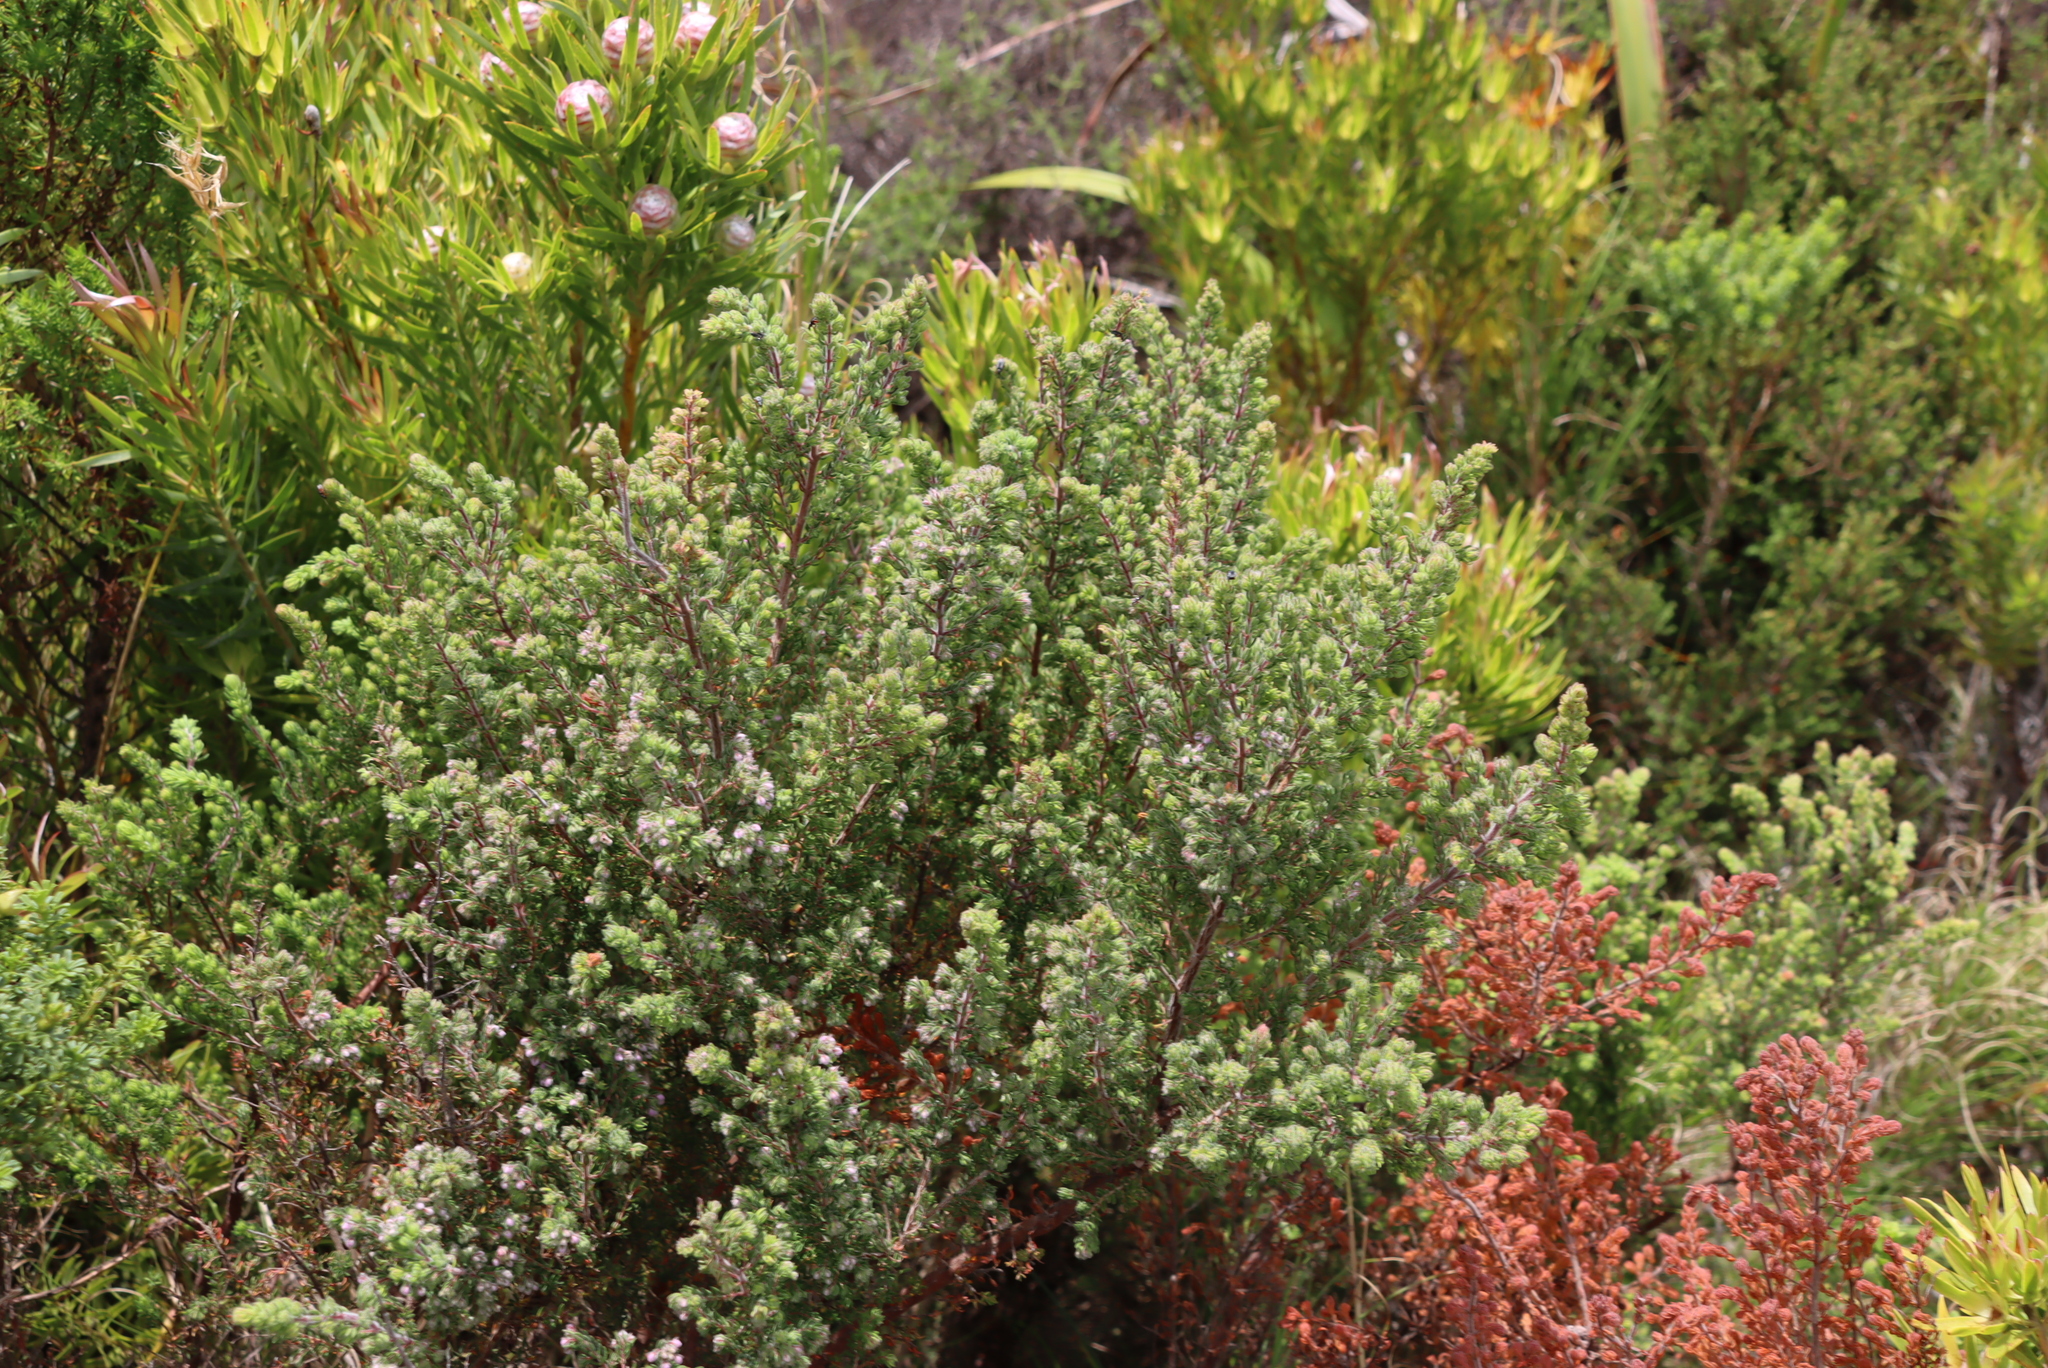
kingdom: Plantae
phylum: Tracheophyta
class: Magnoliopsida
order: Ericales
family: Ericaceae
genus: Erica
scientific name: Erica hirtiflora
